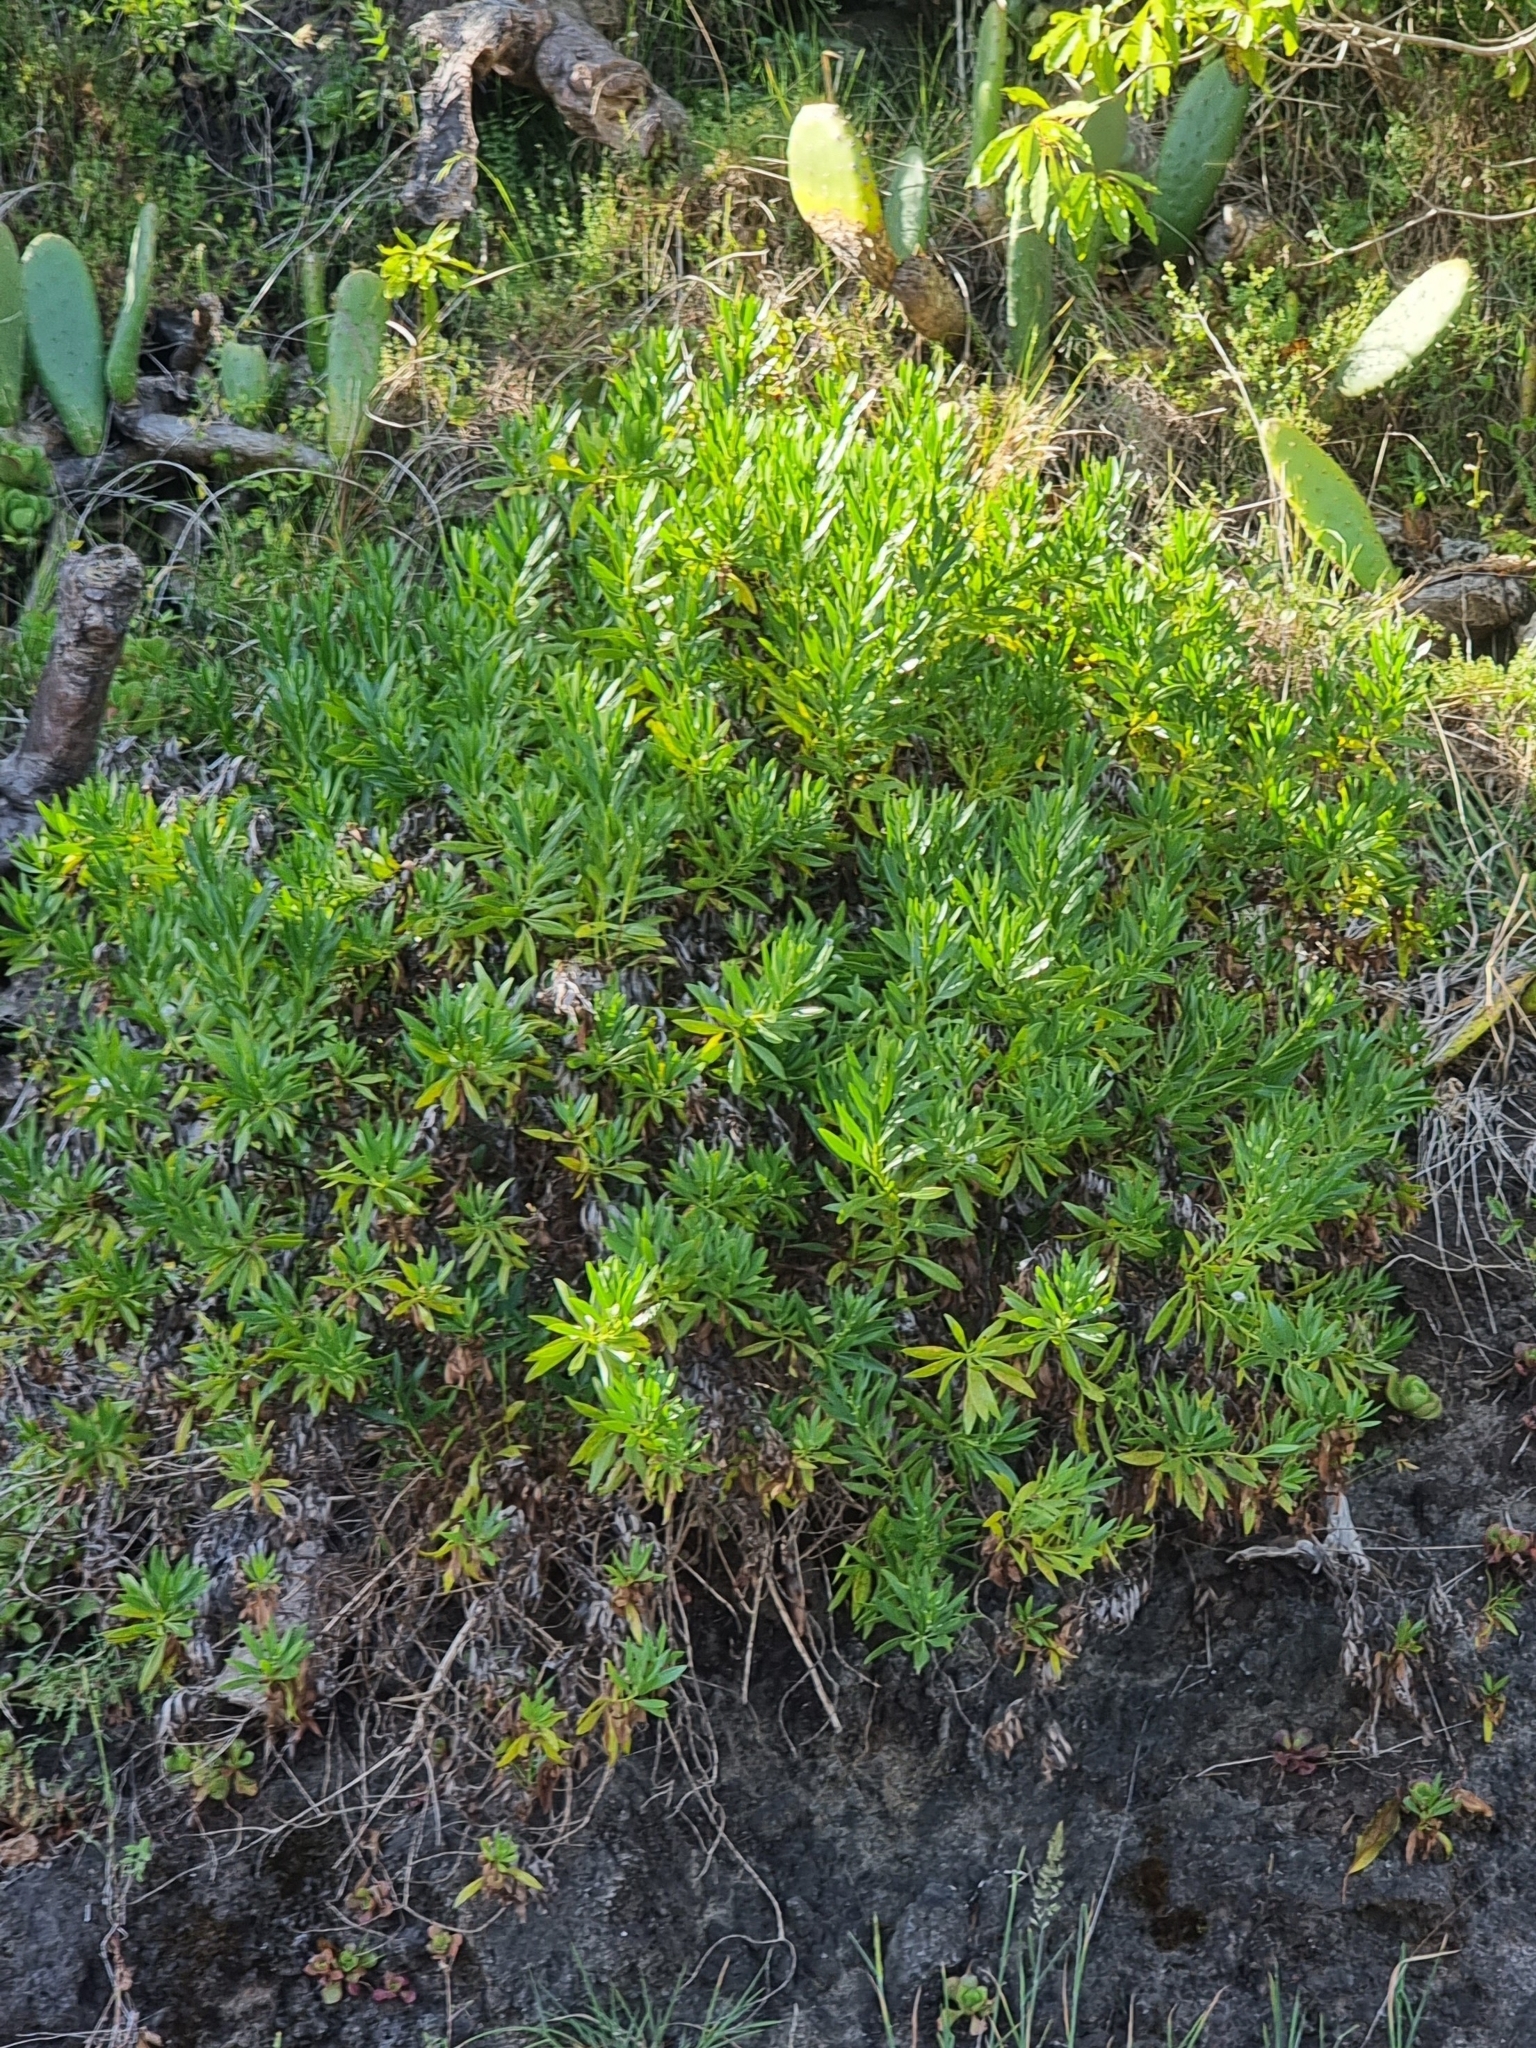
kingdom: Plantae
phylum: Tracheophyta
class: Magnoliopsida
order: Lamiales
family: Plantaginaceae
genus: Globularia
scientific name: Globularia salicina
